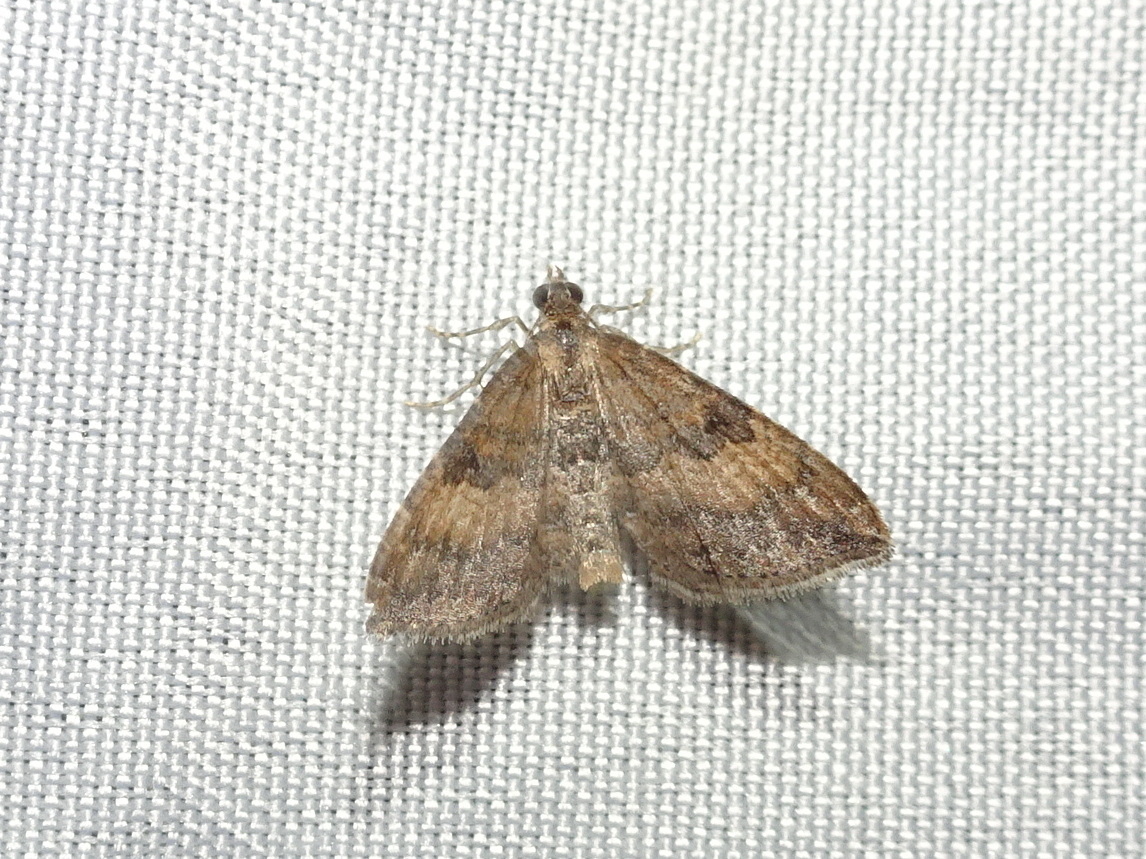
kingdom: Animalia
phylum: Arthropoda
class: Insecta
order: Lepidoptera
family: Geometridae
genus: Orthonama
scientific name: Orthonama obstipata
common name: The gem
